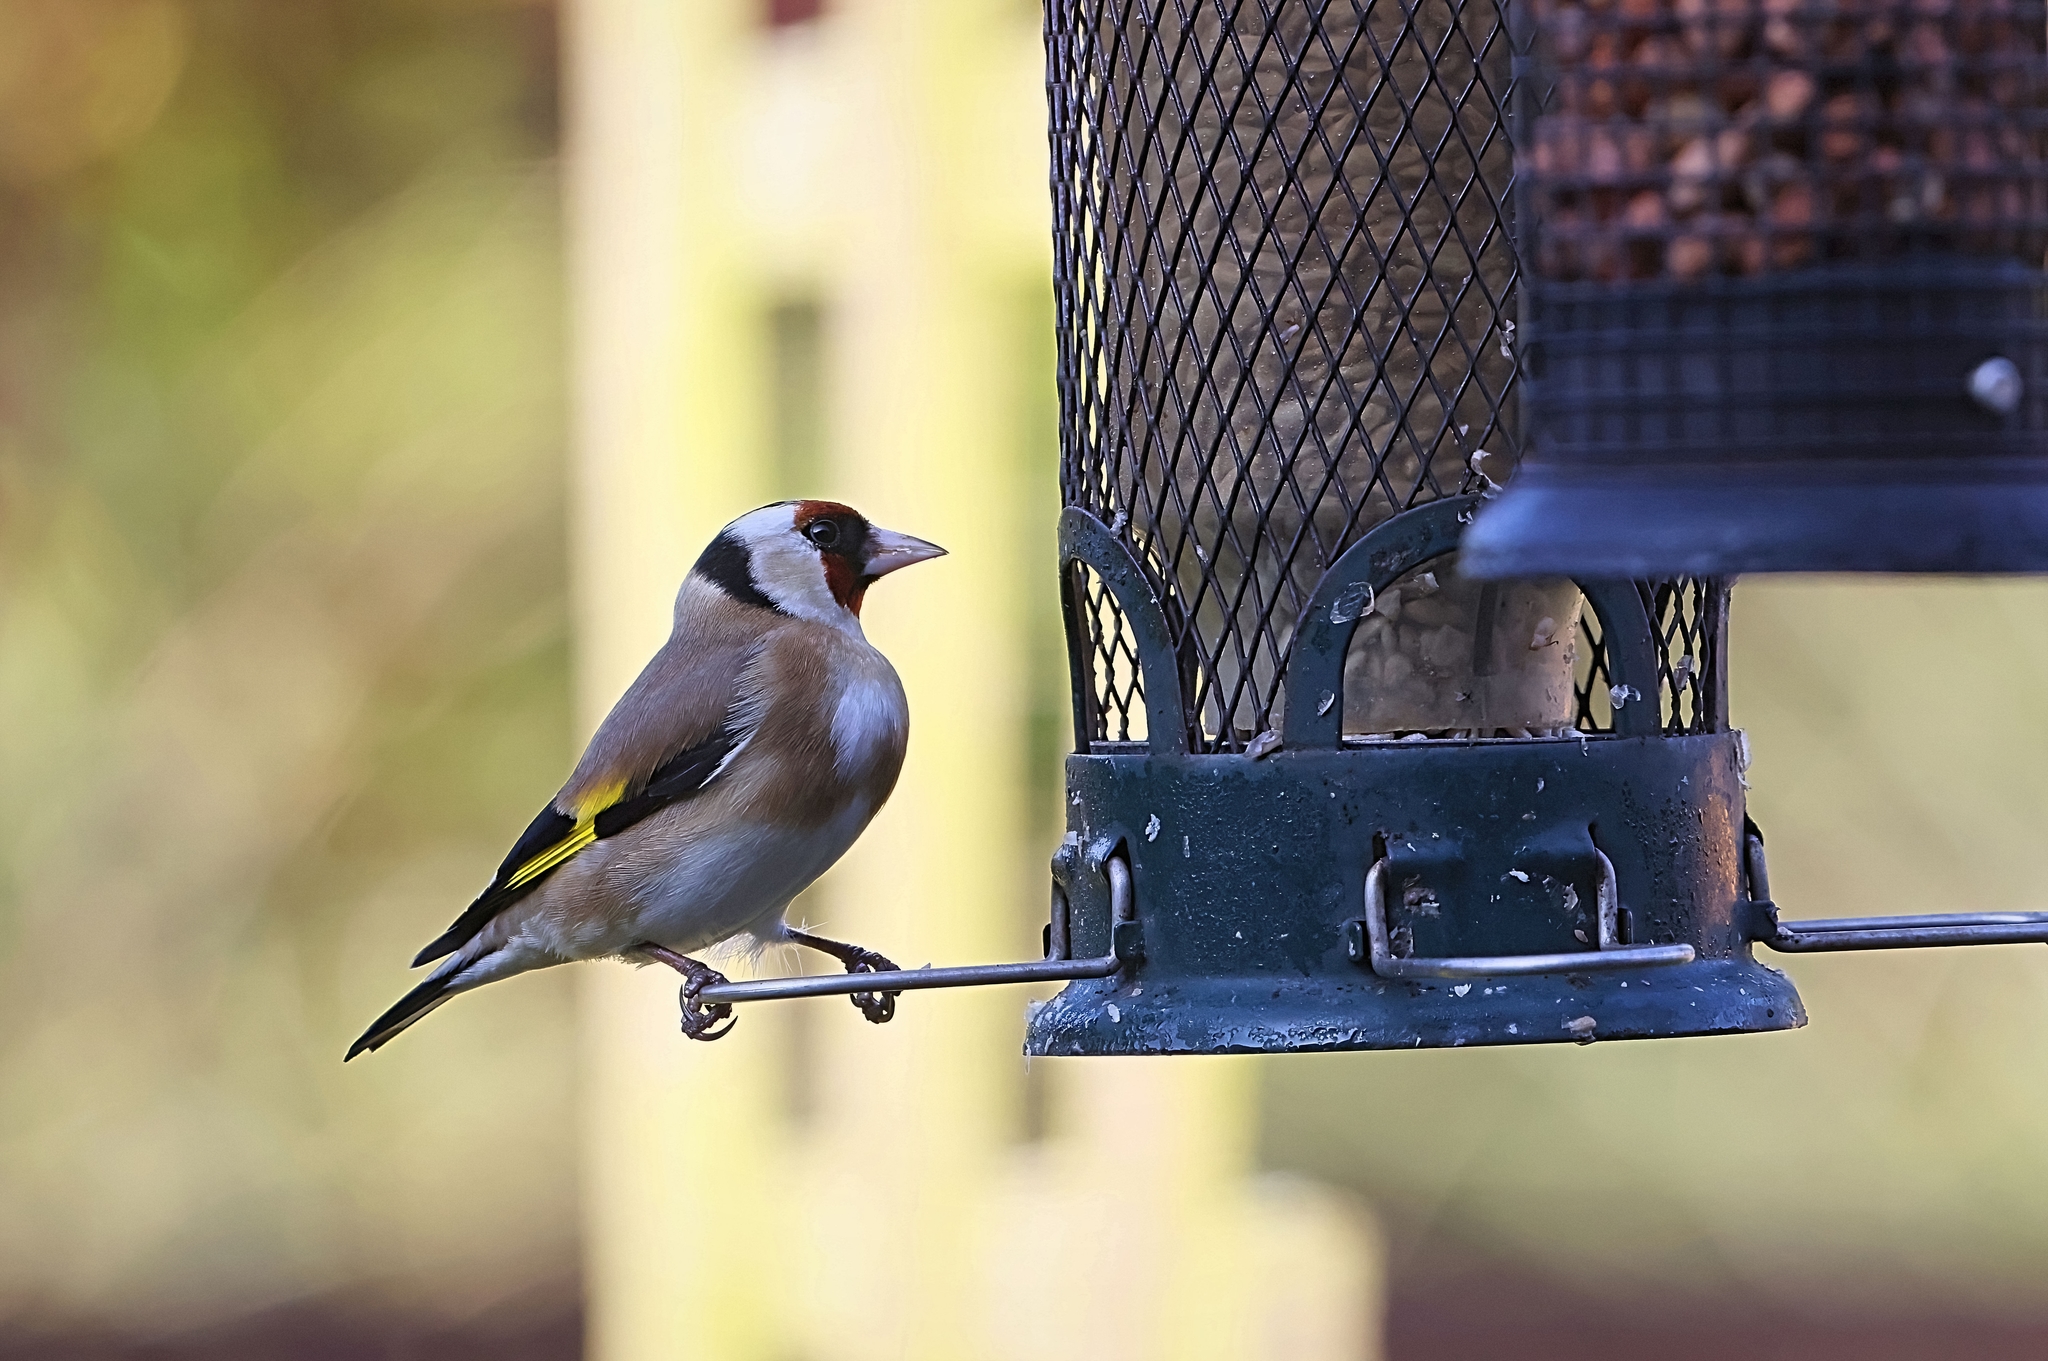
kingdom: Animalia
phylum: Chordata
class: Aves
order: Passeriformes
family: Fringillidae
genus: Carduelis
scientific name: Carduelis carduelis
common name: European goldfinch
